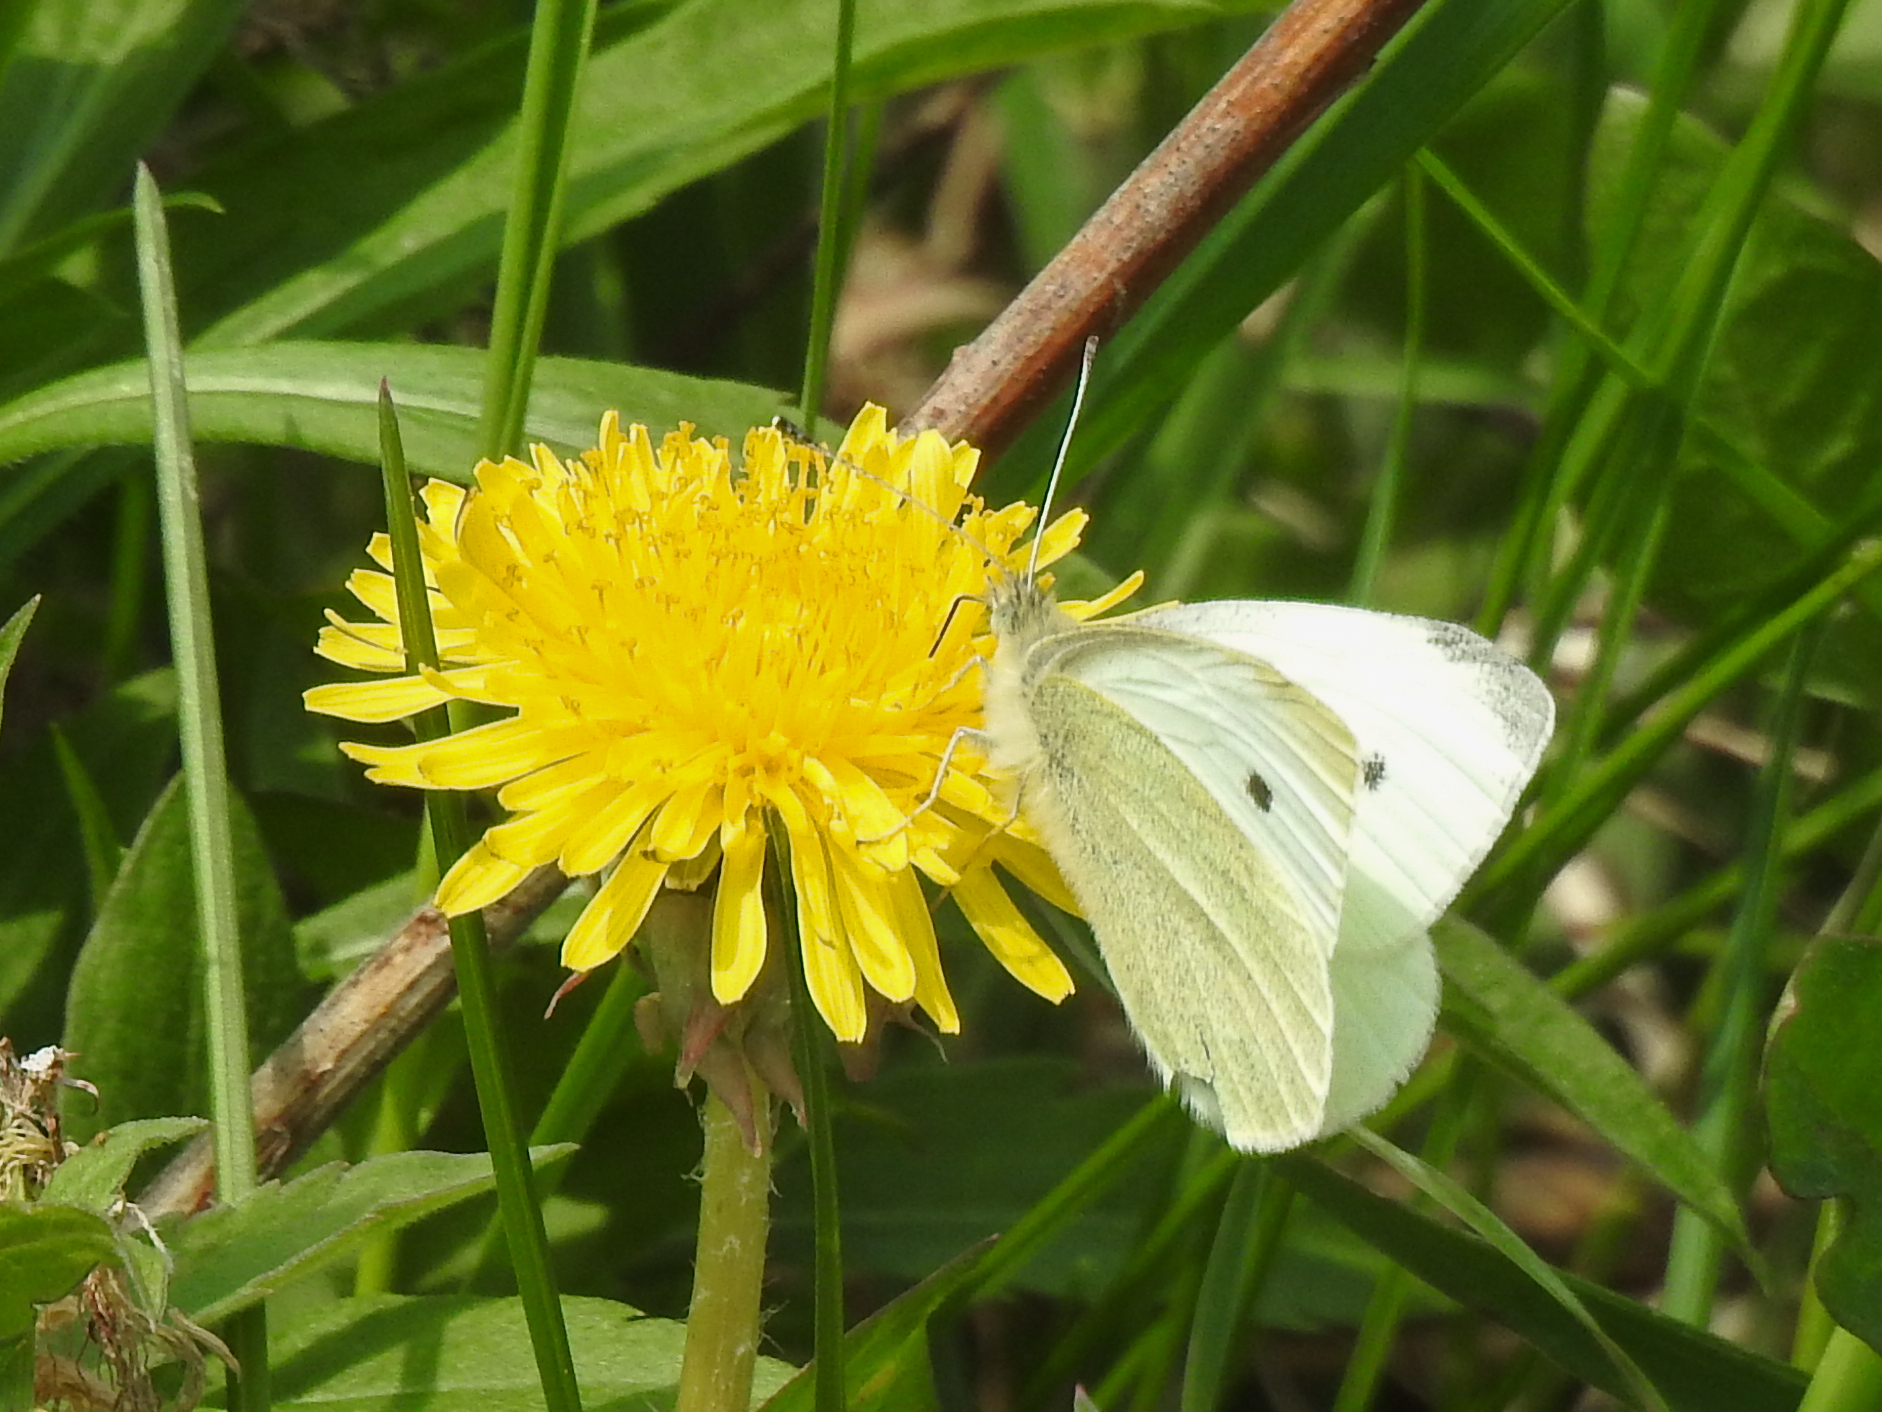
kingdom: Animalia
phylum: Arthropoda
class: Insecta
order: Lepidoptera
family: Pieridae
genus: Pieris
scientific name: Pieris rapae
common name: Small white
